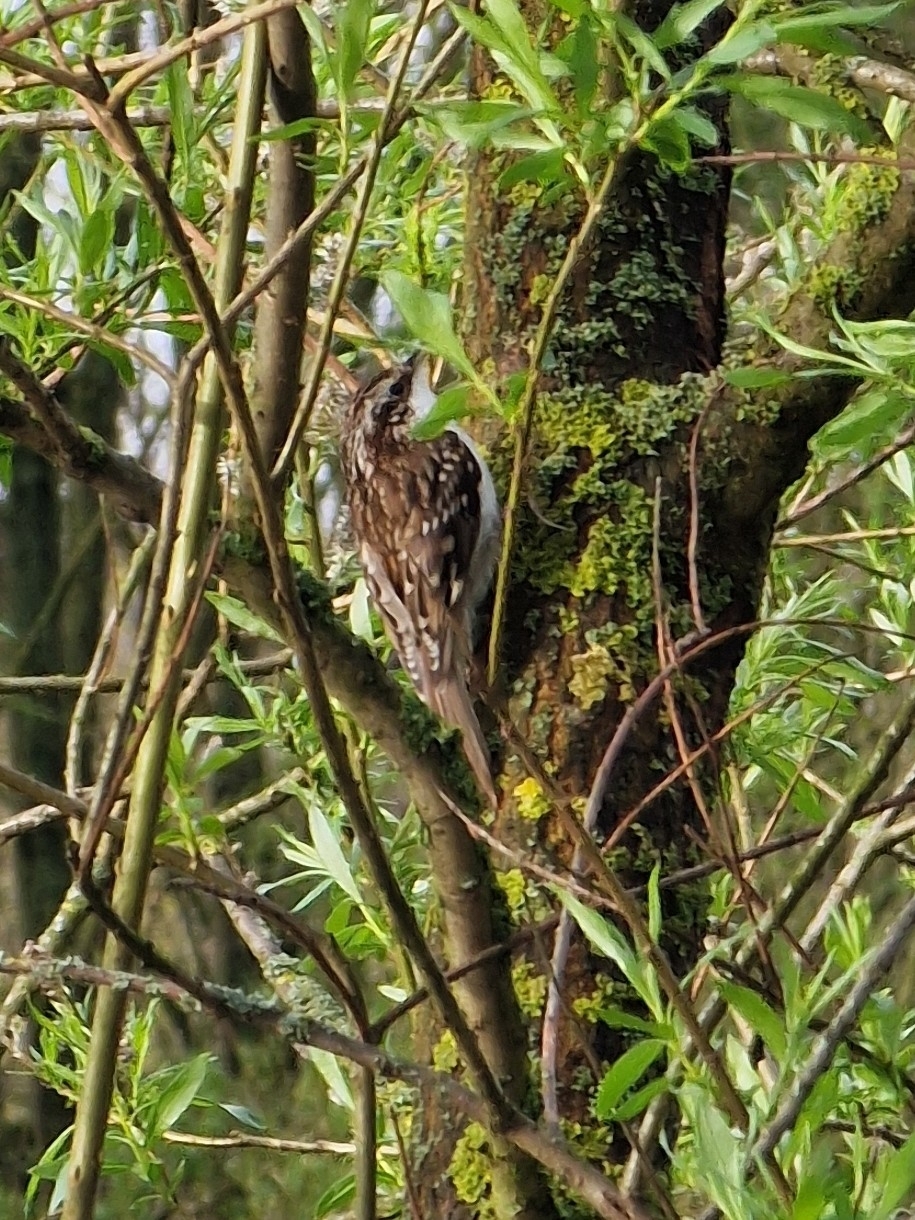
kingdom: Animalia
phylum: Chordata
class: Aves
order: Passeriformes
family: Certhiidae
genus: Certhia
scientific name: Certhia familiaris
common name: Eurasian treecreeper
